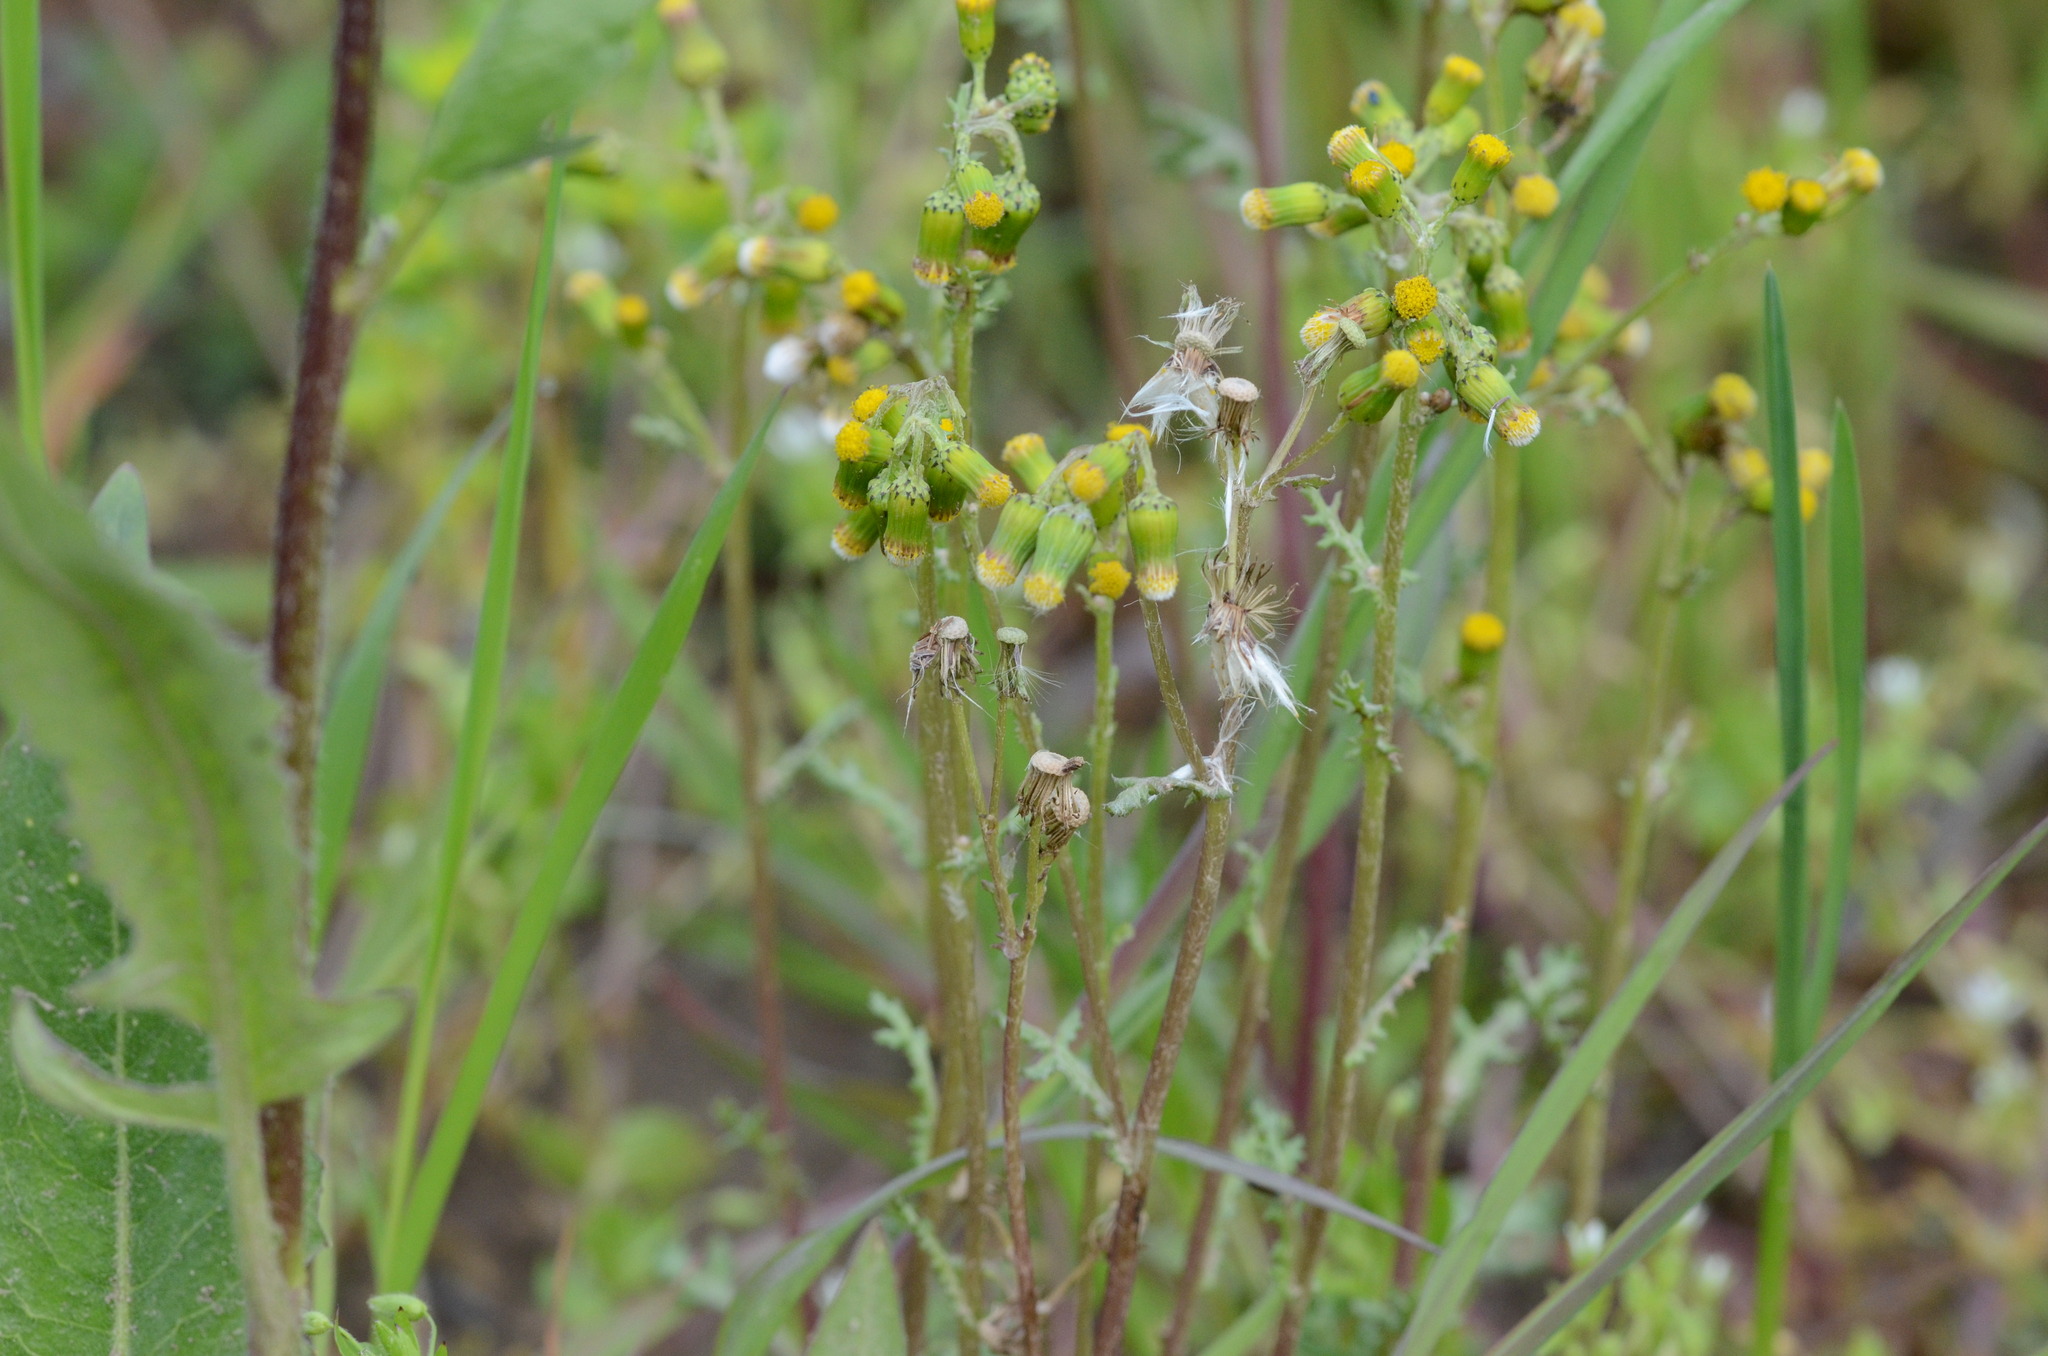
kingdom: Plantae
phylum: Tracheophyta
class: Magnoliopsida
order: Asterales
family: Asteraceae
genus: Senecio
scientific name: Senecio vulgaris
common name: Old-man-in-the-spring
